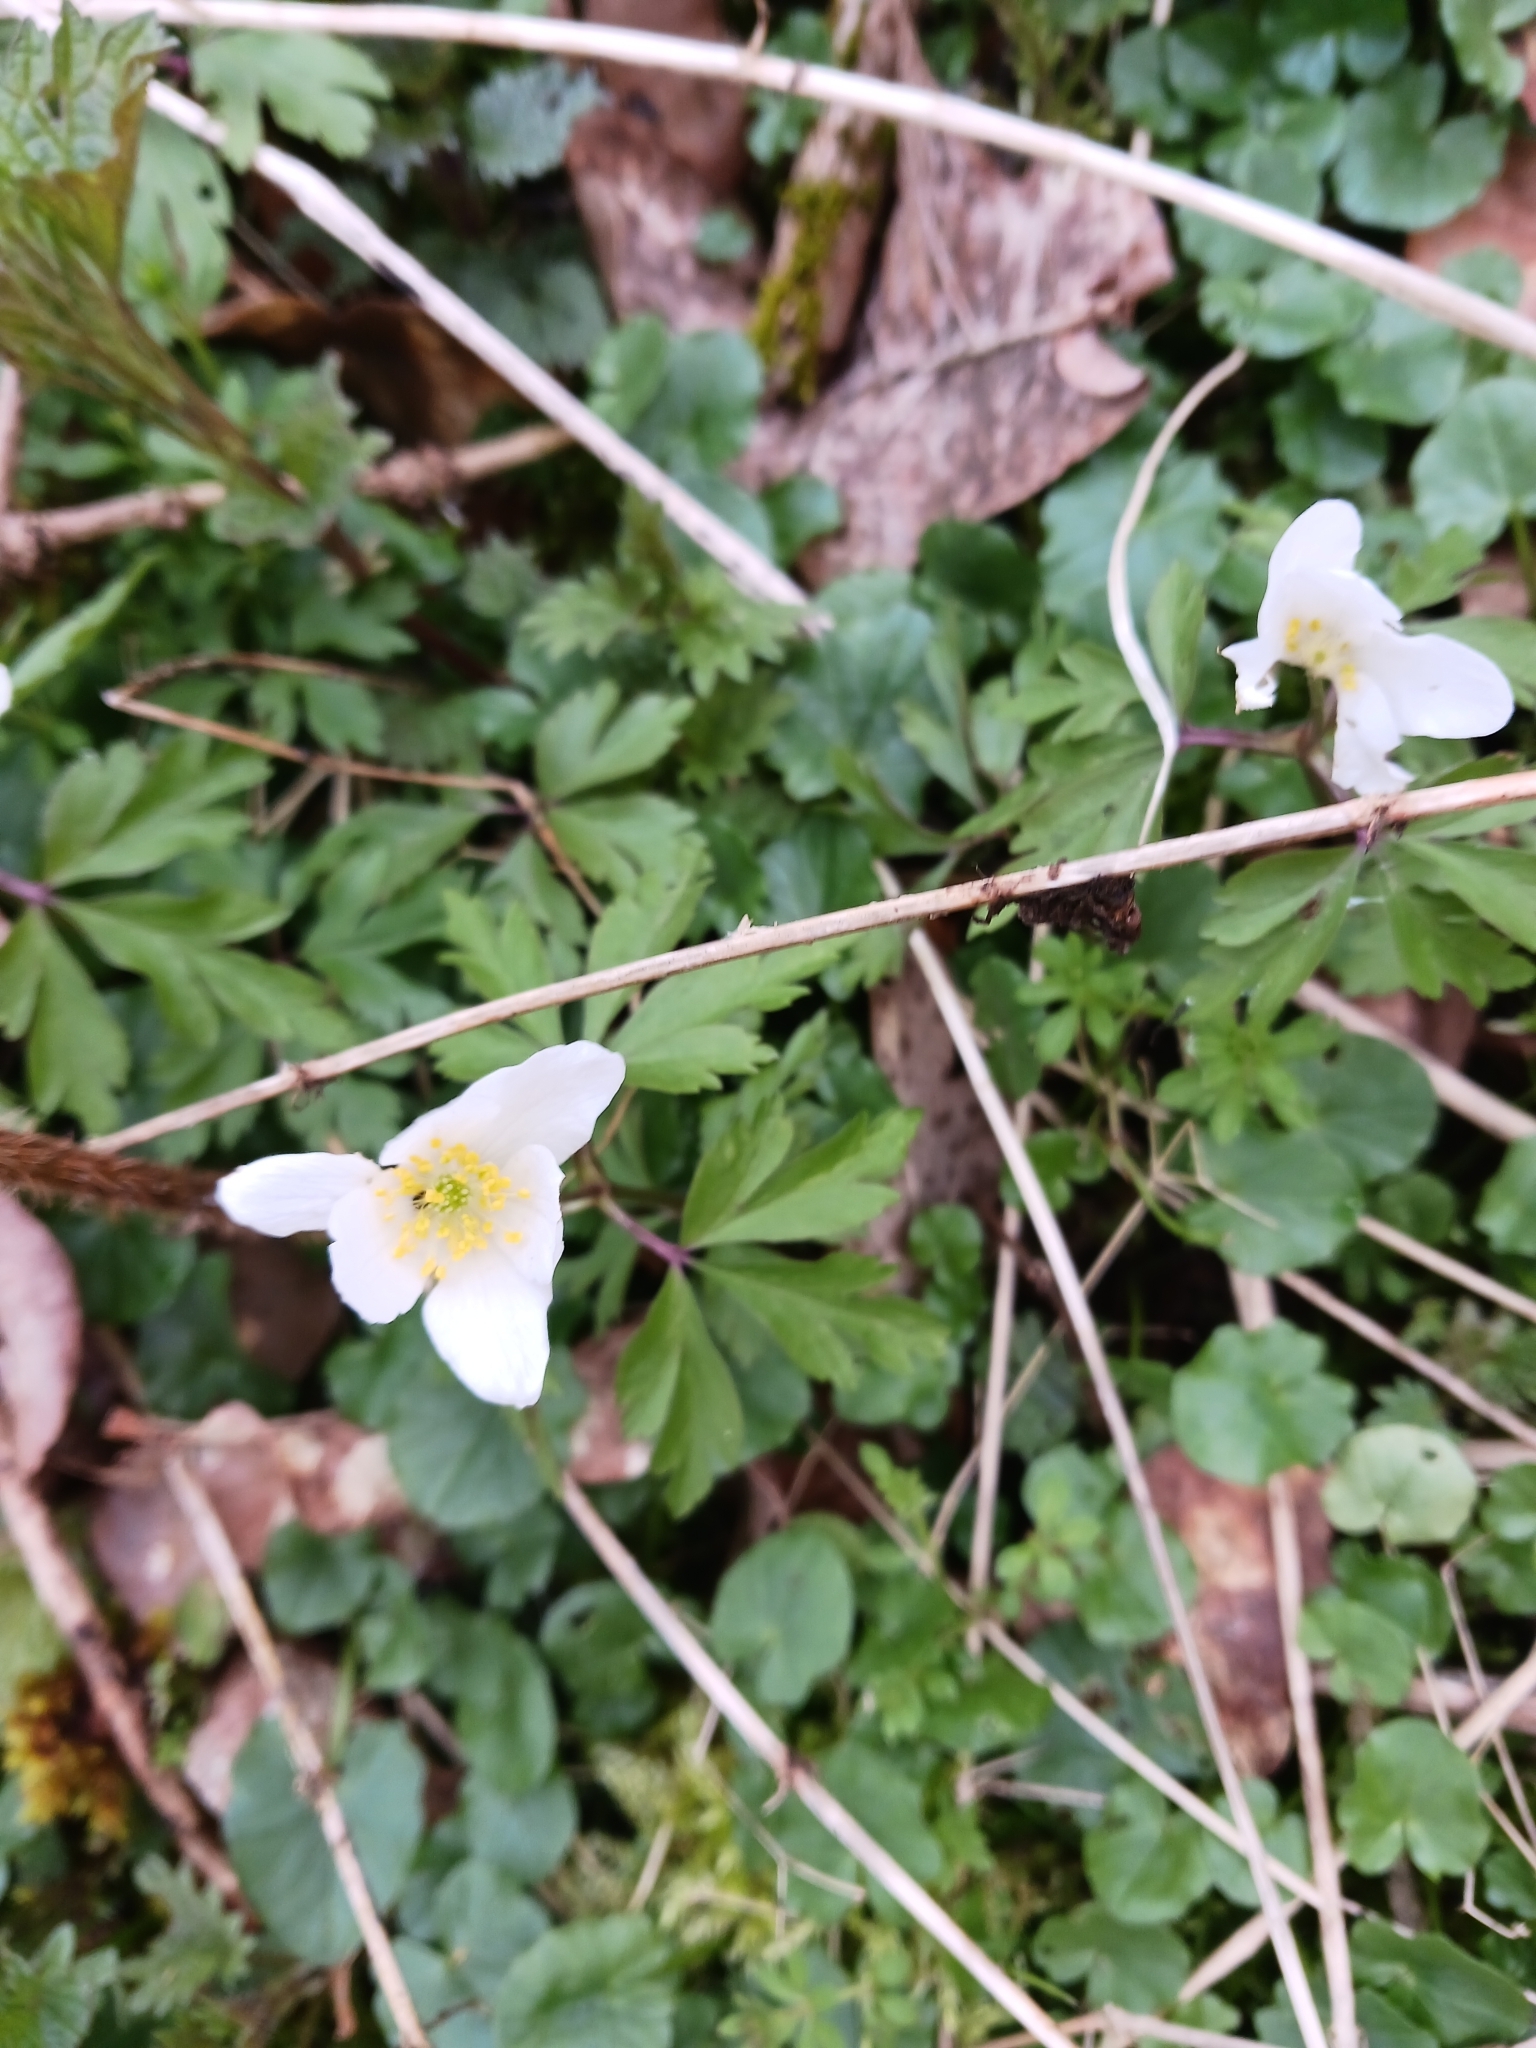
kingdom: Plantae
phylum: Tracheophyta
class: Magnoliopsida
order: Ranunculales
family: Ranunculaceae
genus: Anemone
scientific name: Anemone nemorosa
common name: Wood anemone
